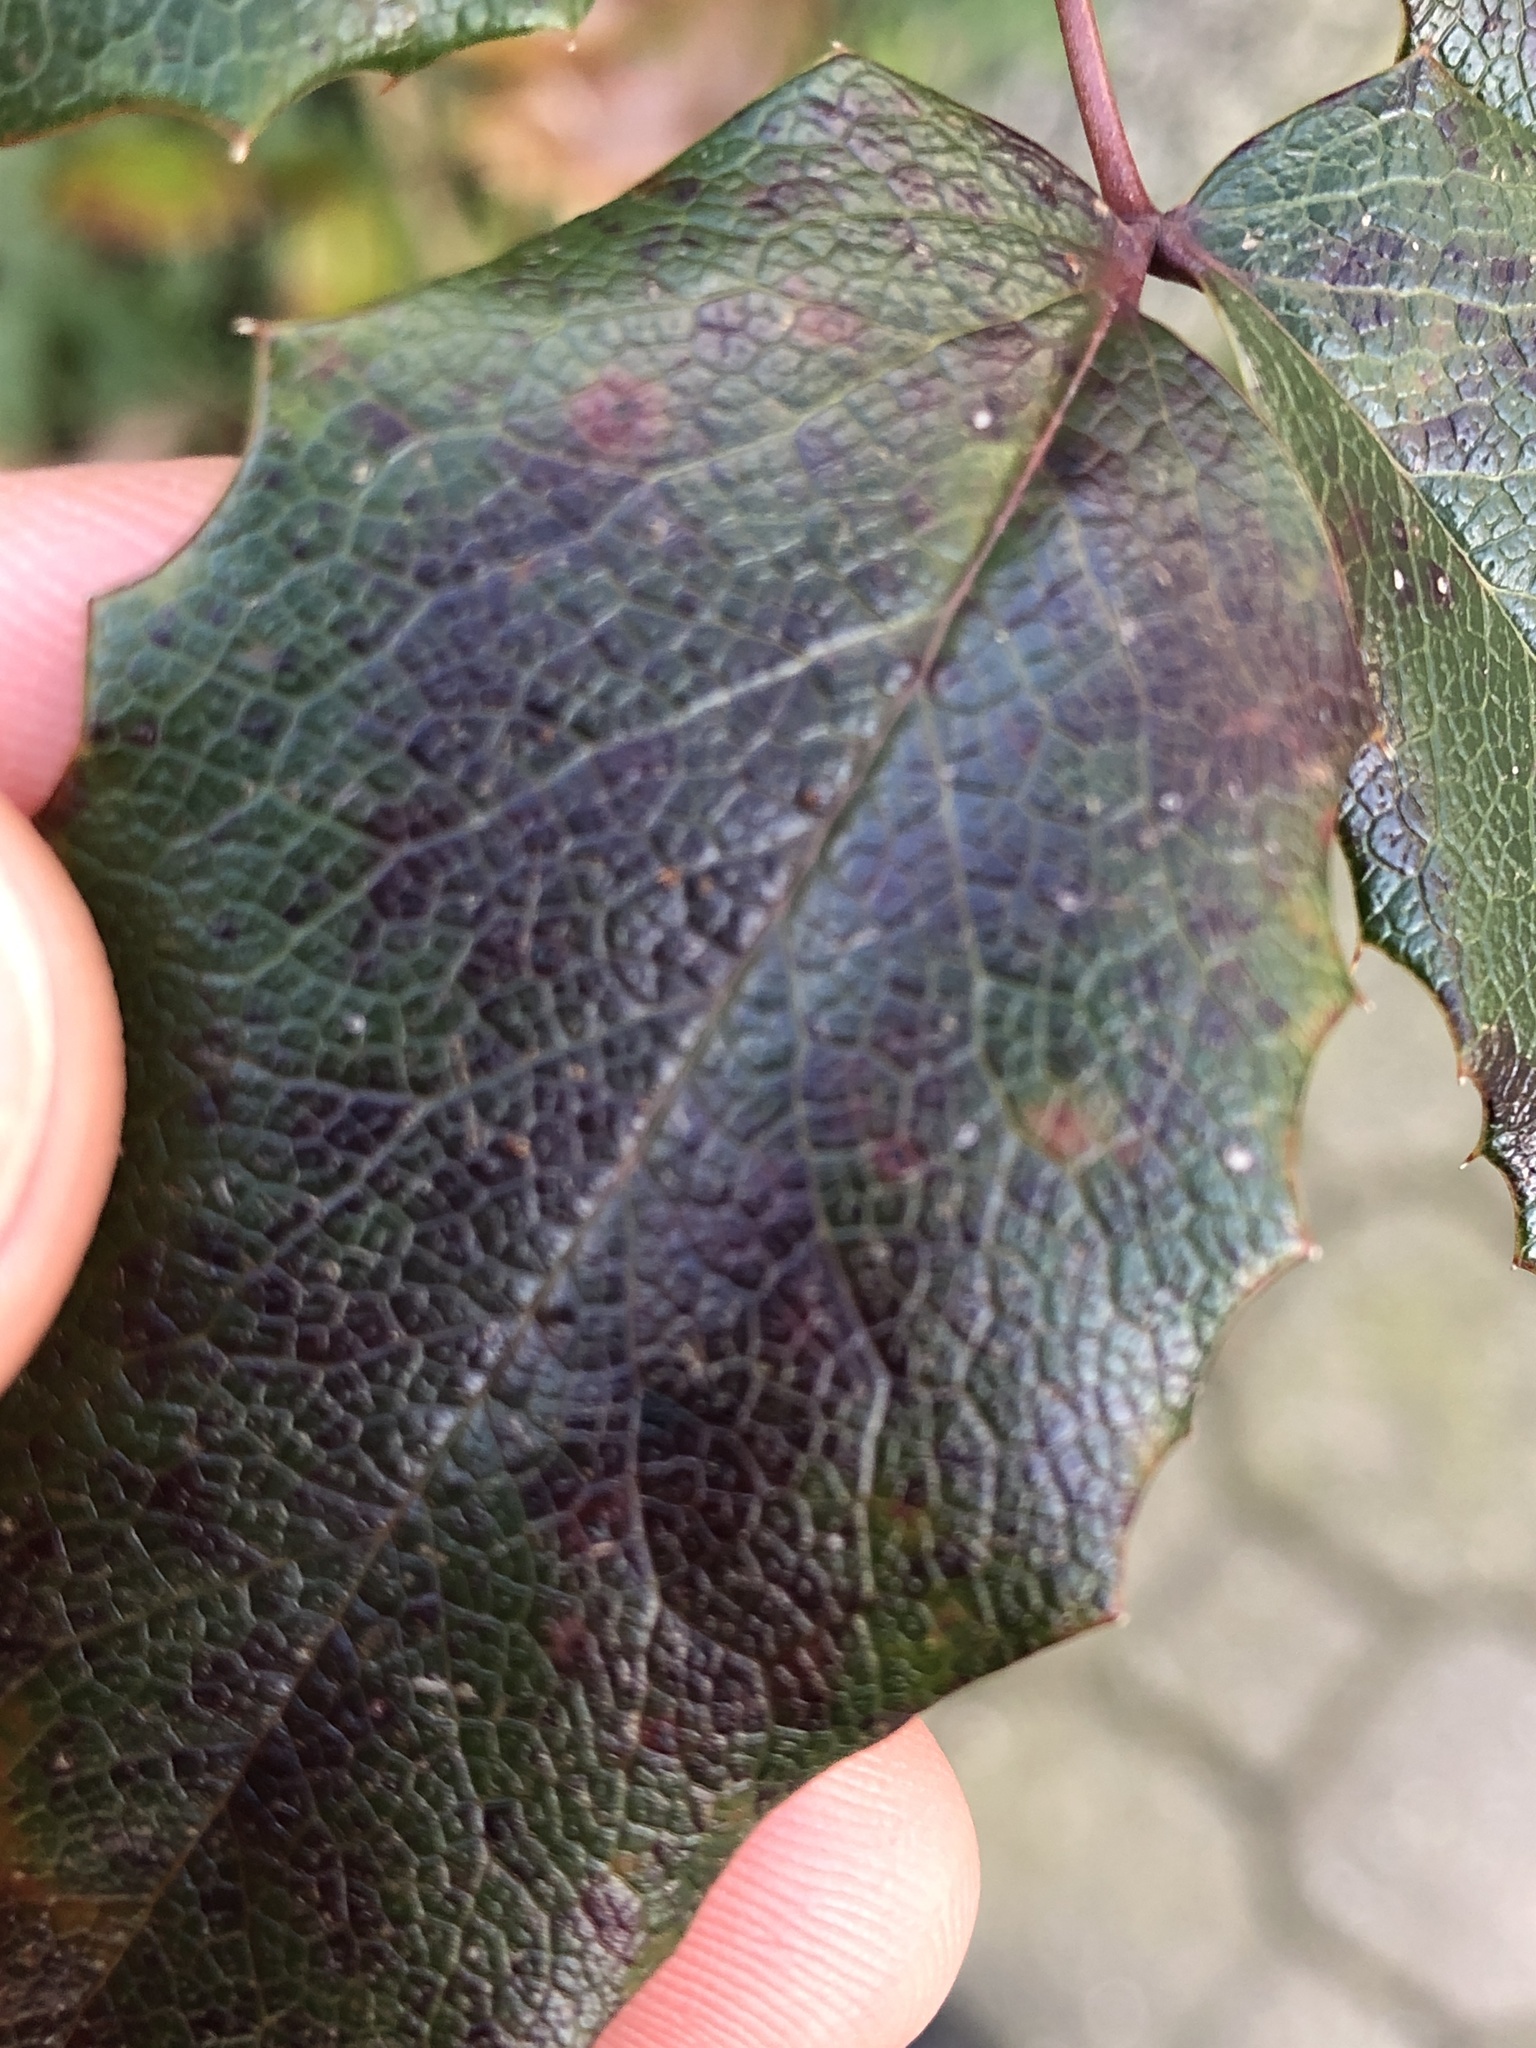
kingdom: Fungi
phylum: Basidiomycota
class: Pucciniomycetes
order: Pucciniales
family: Pucciniaceae
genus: Cumminsiella
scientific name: Cumminsiella mirabilissima
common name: Mahonia rust
